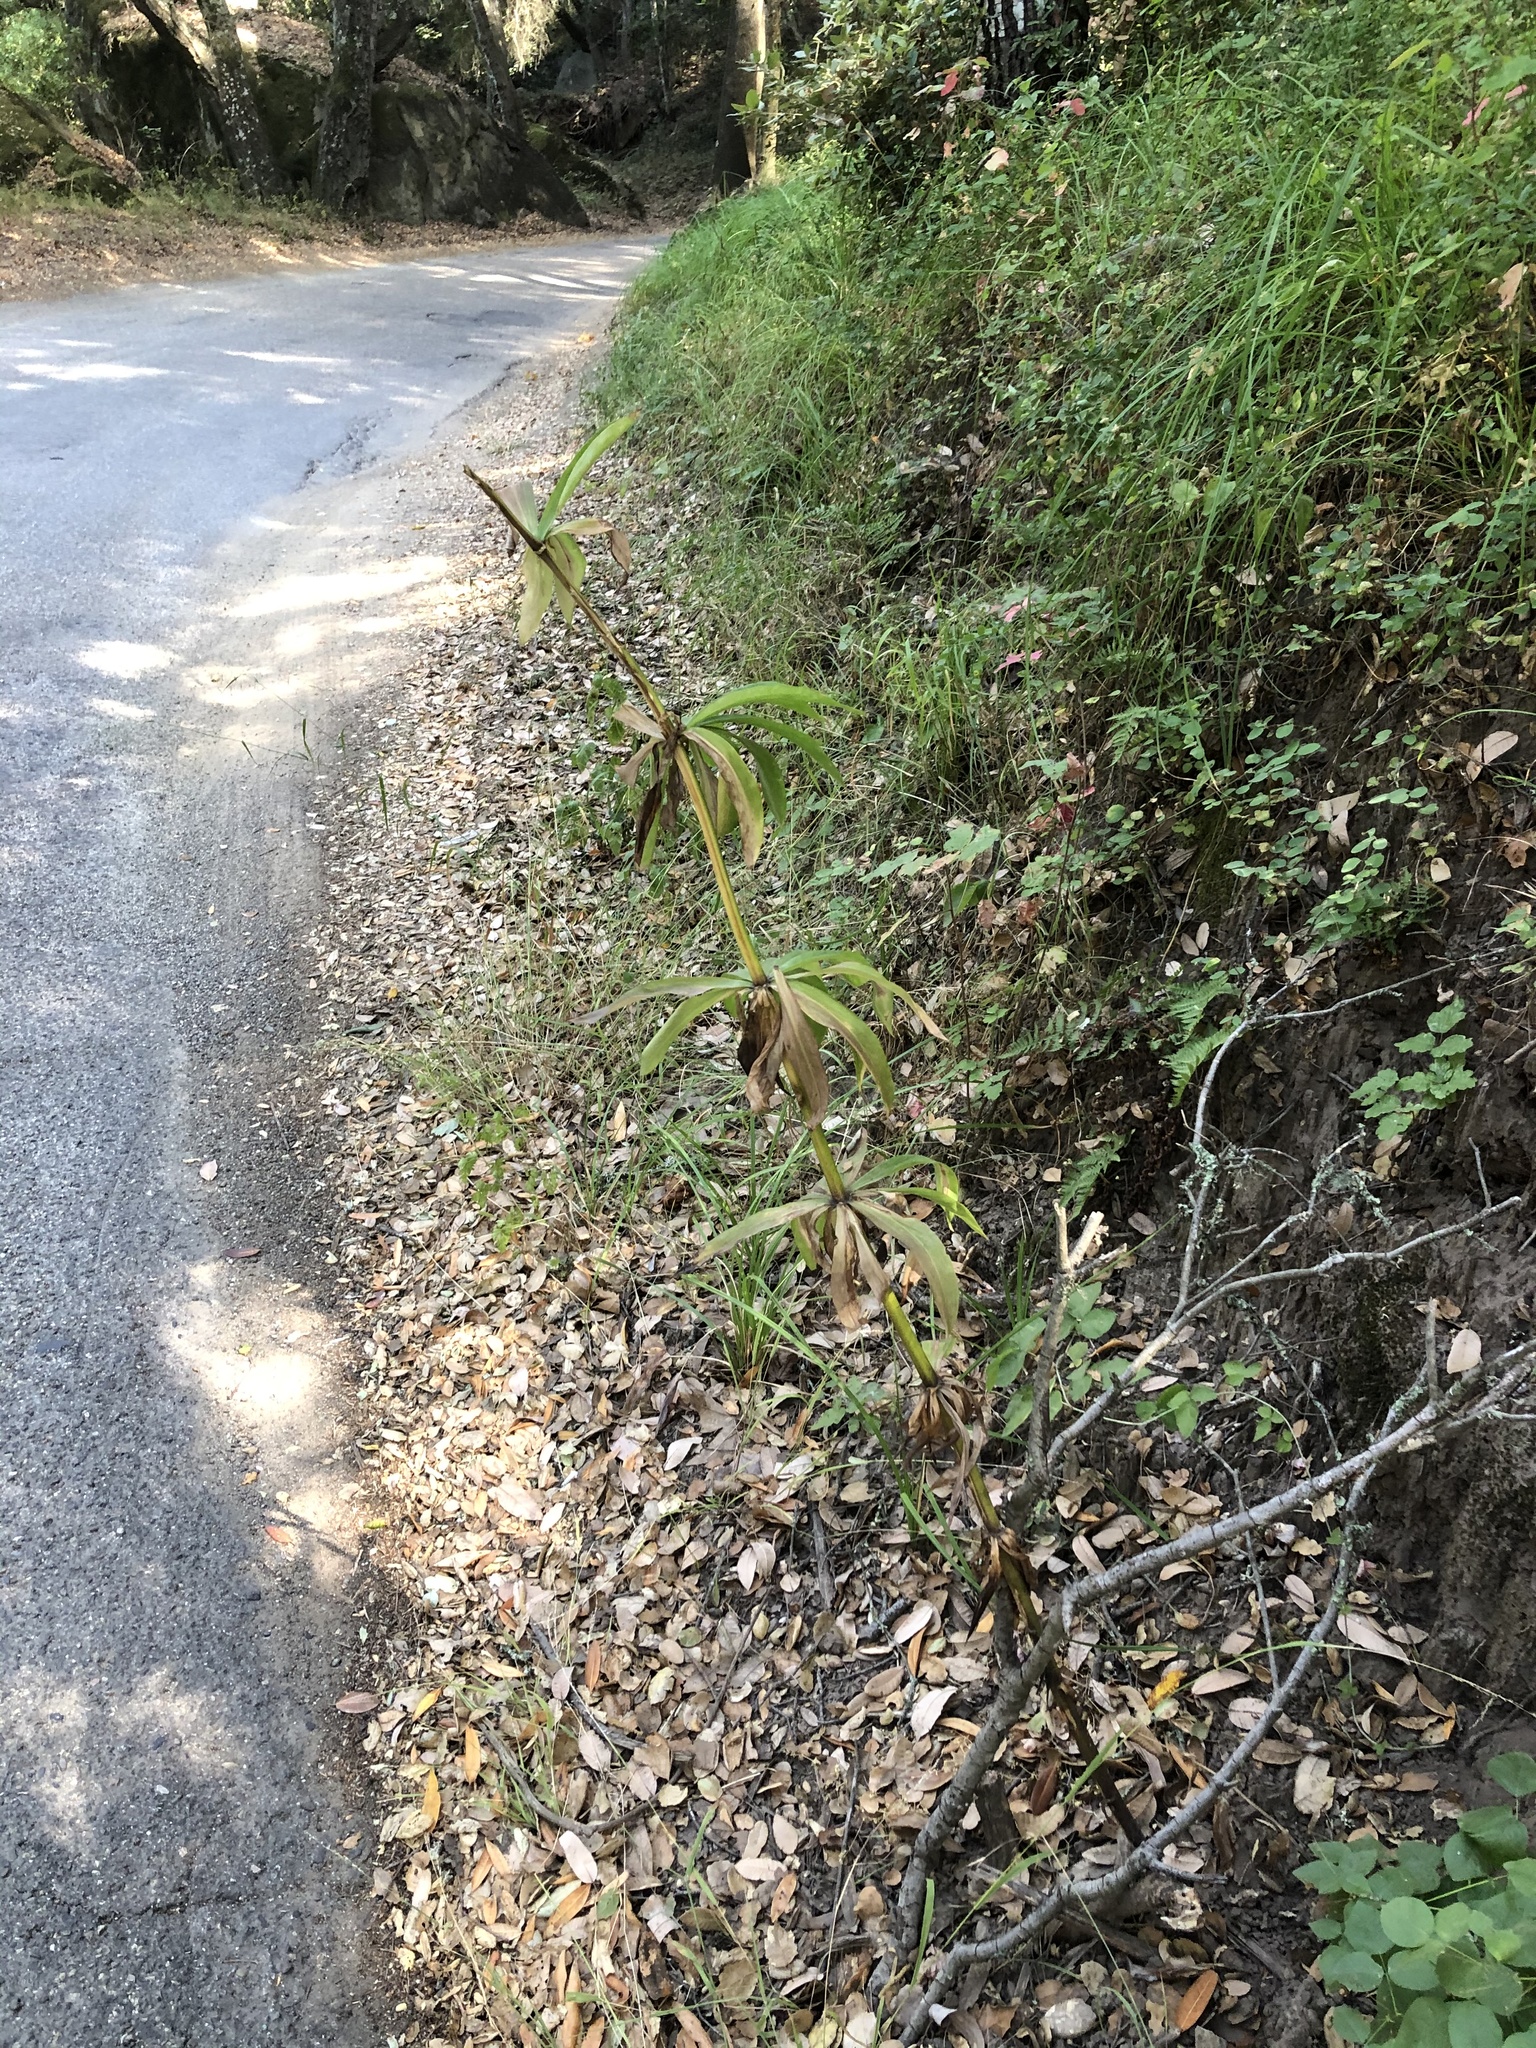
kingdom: Plantae
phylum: Tracheophyta
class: Liliopsida
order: Liliales
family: Liliaceae
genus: Lilium
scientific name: Lilium humboldtii
